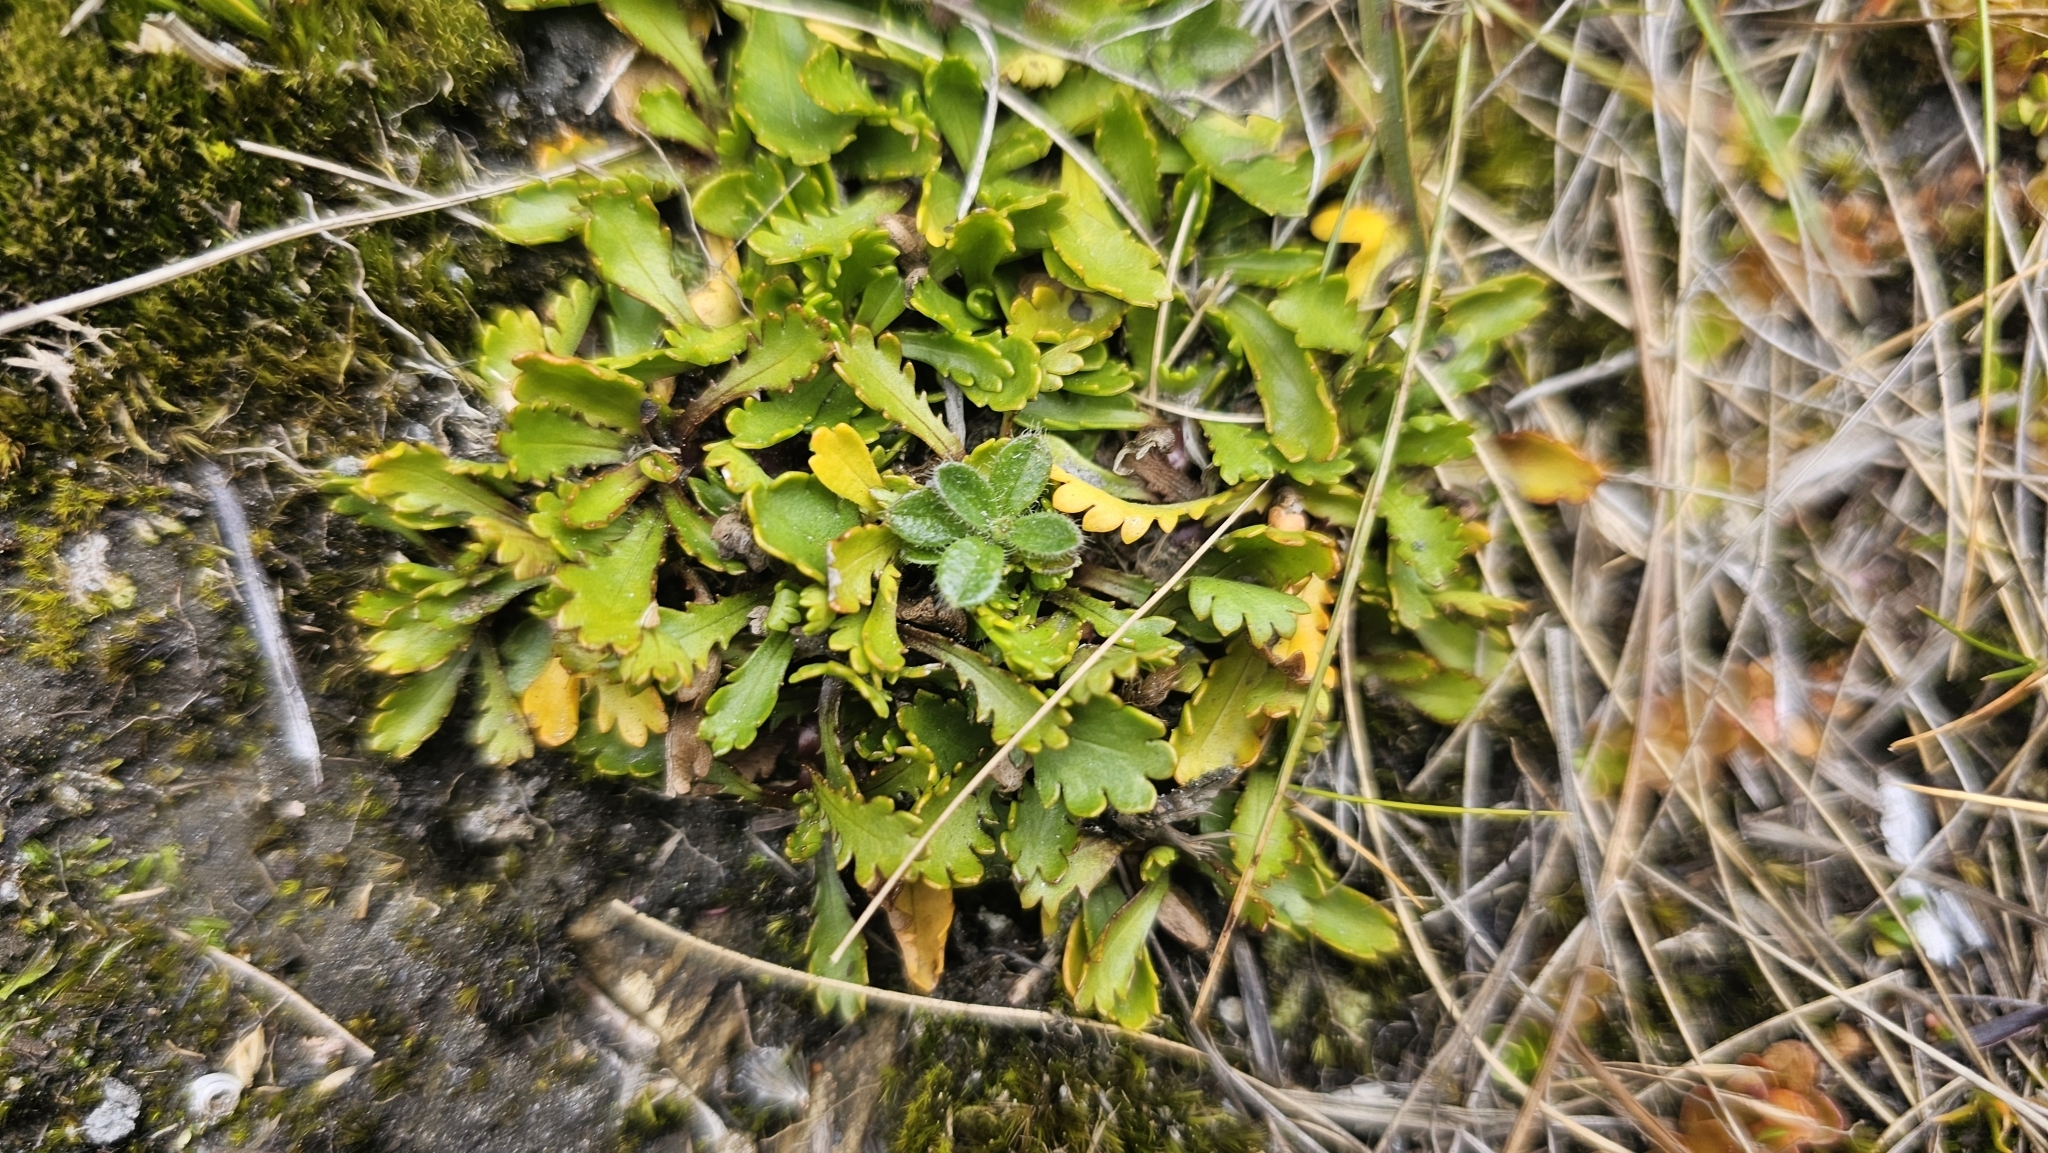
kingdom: Plantae
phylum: Tracheophyta
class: Magnoliopsida
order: Asterales
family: Asteraceae
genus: Brachyscome
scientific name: Brachyscome sinclairii
